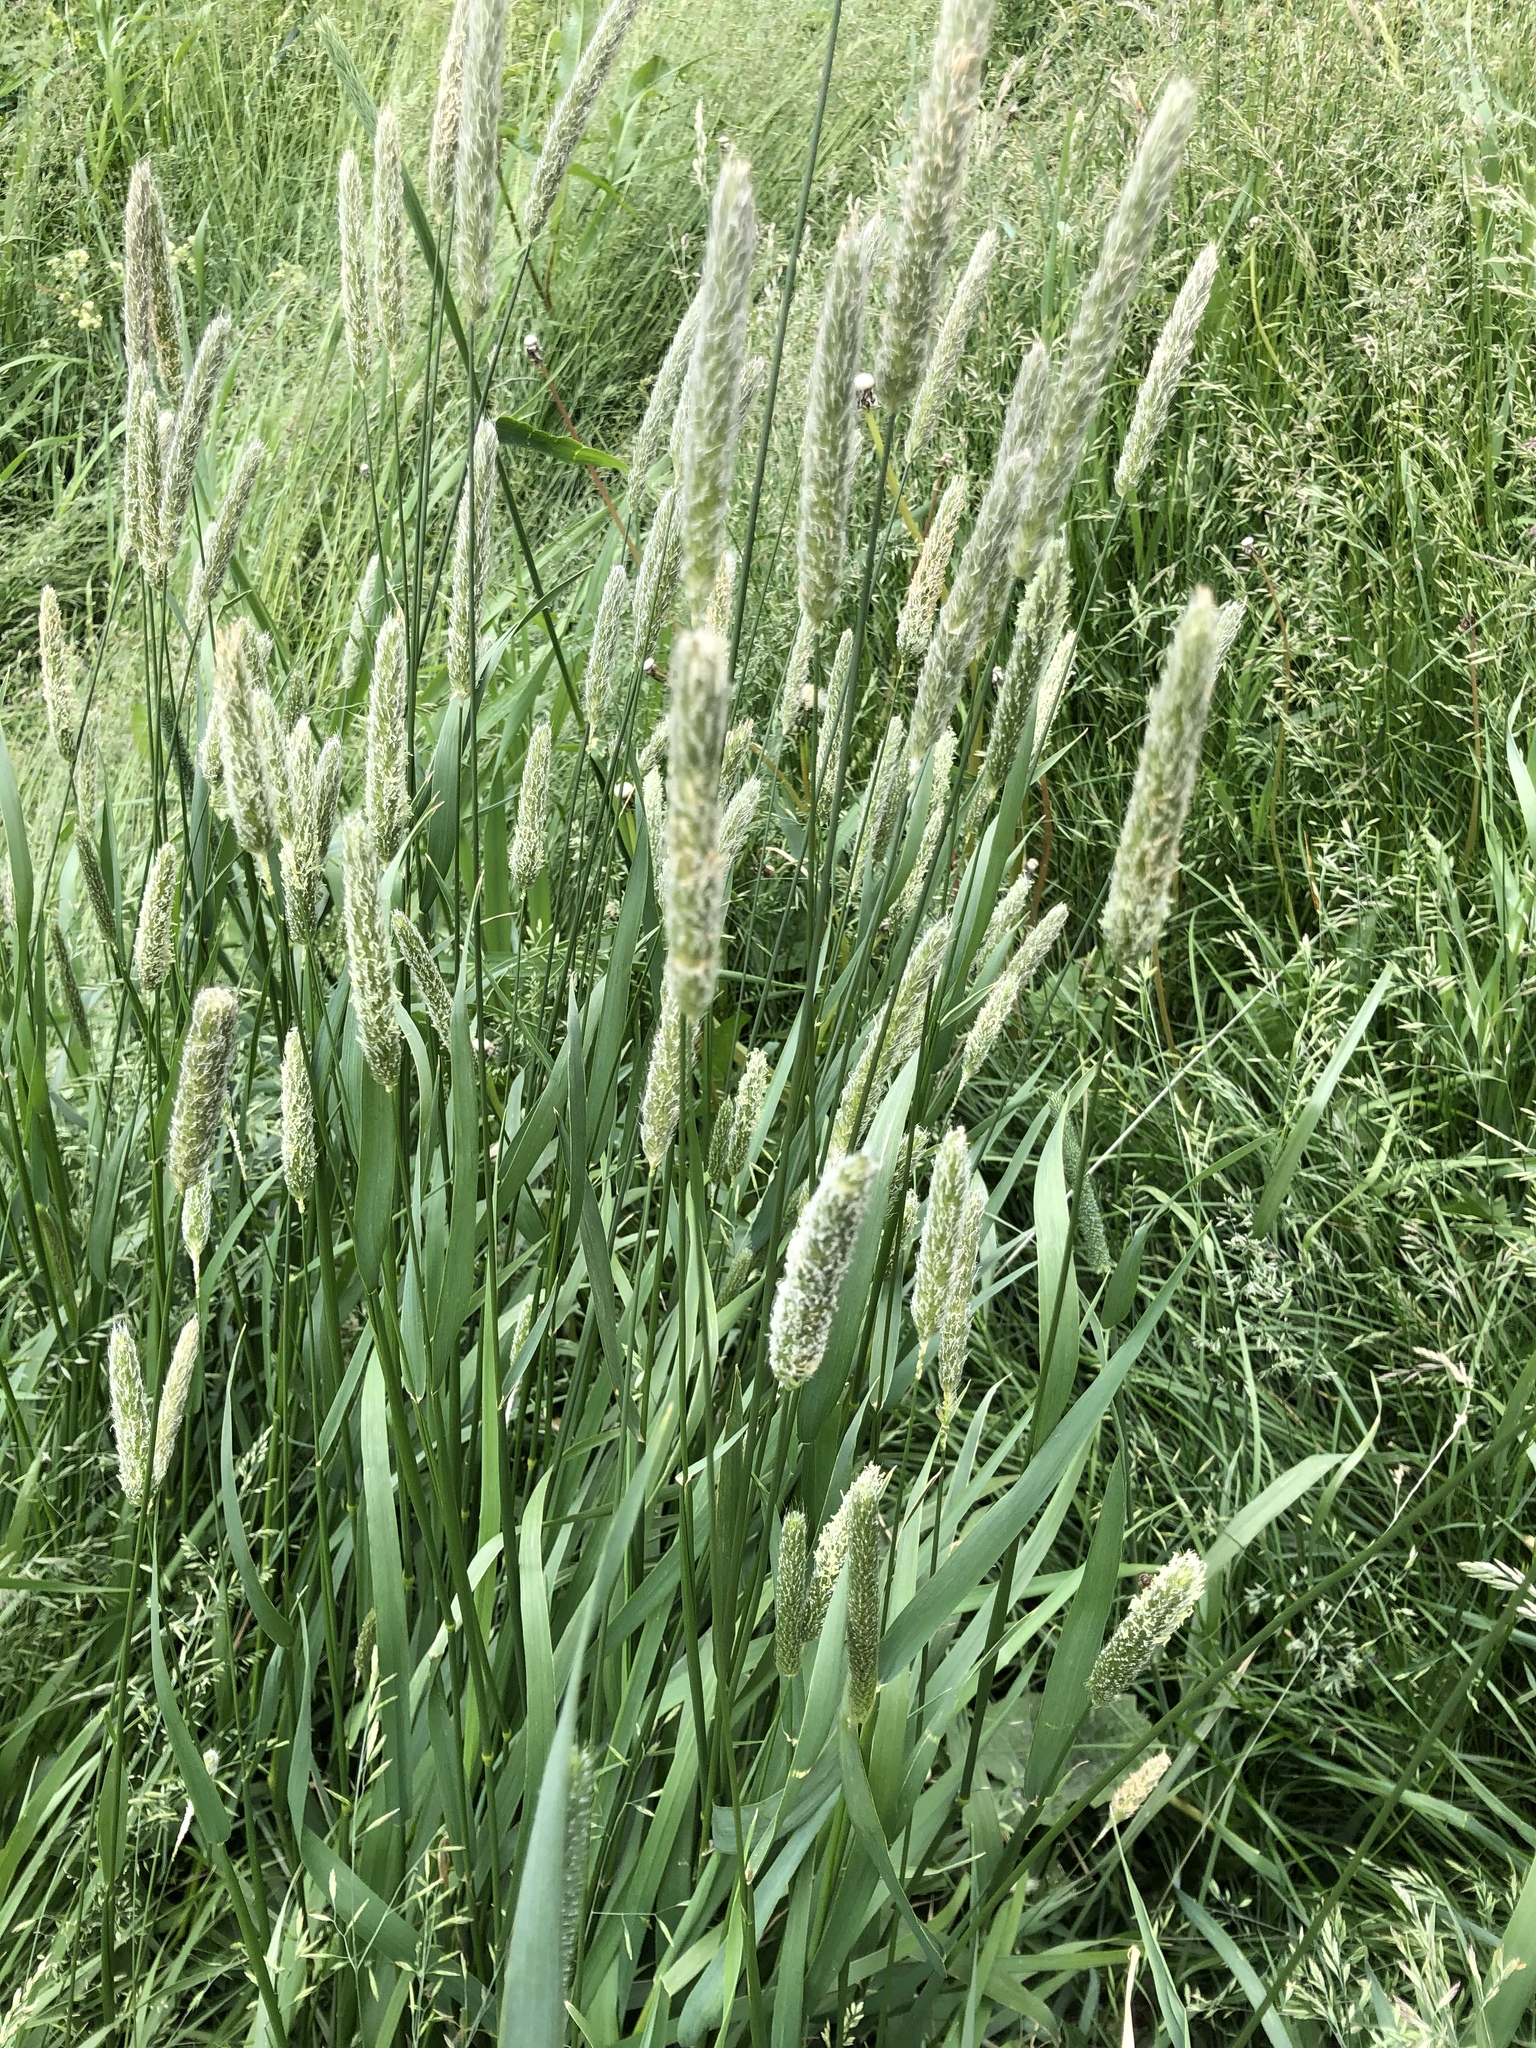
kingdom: Plantae
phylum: Tracheophyta
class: Liliopsida
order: Poales
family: Poaceae
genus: Alopecurus
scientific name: Alopecurus pratensis
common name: Meadow foxtail
